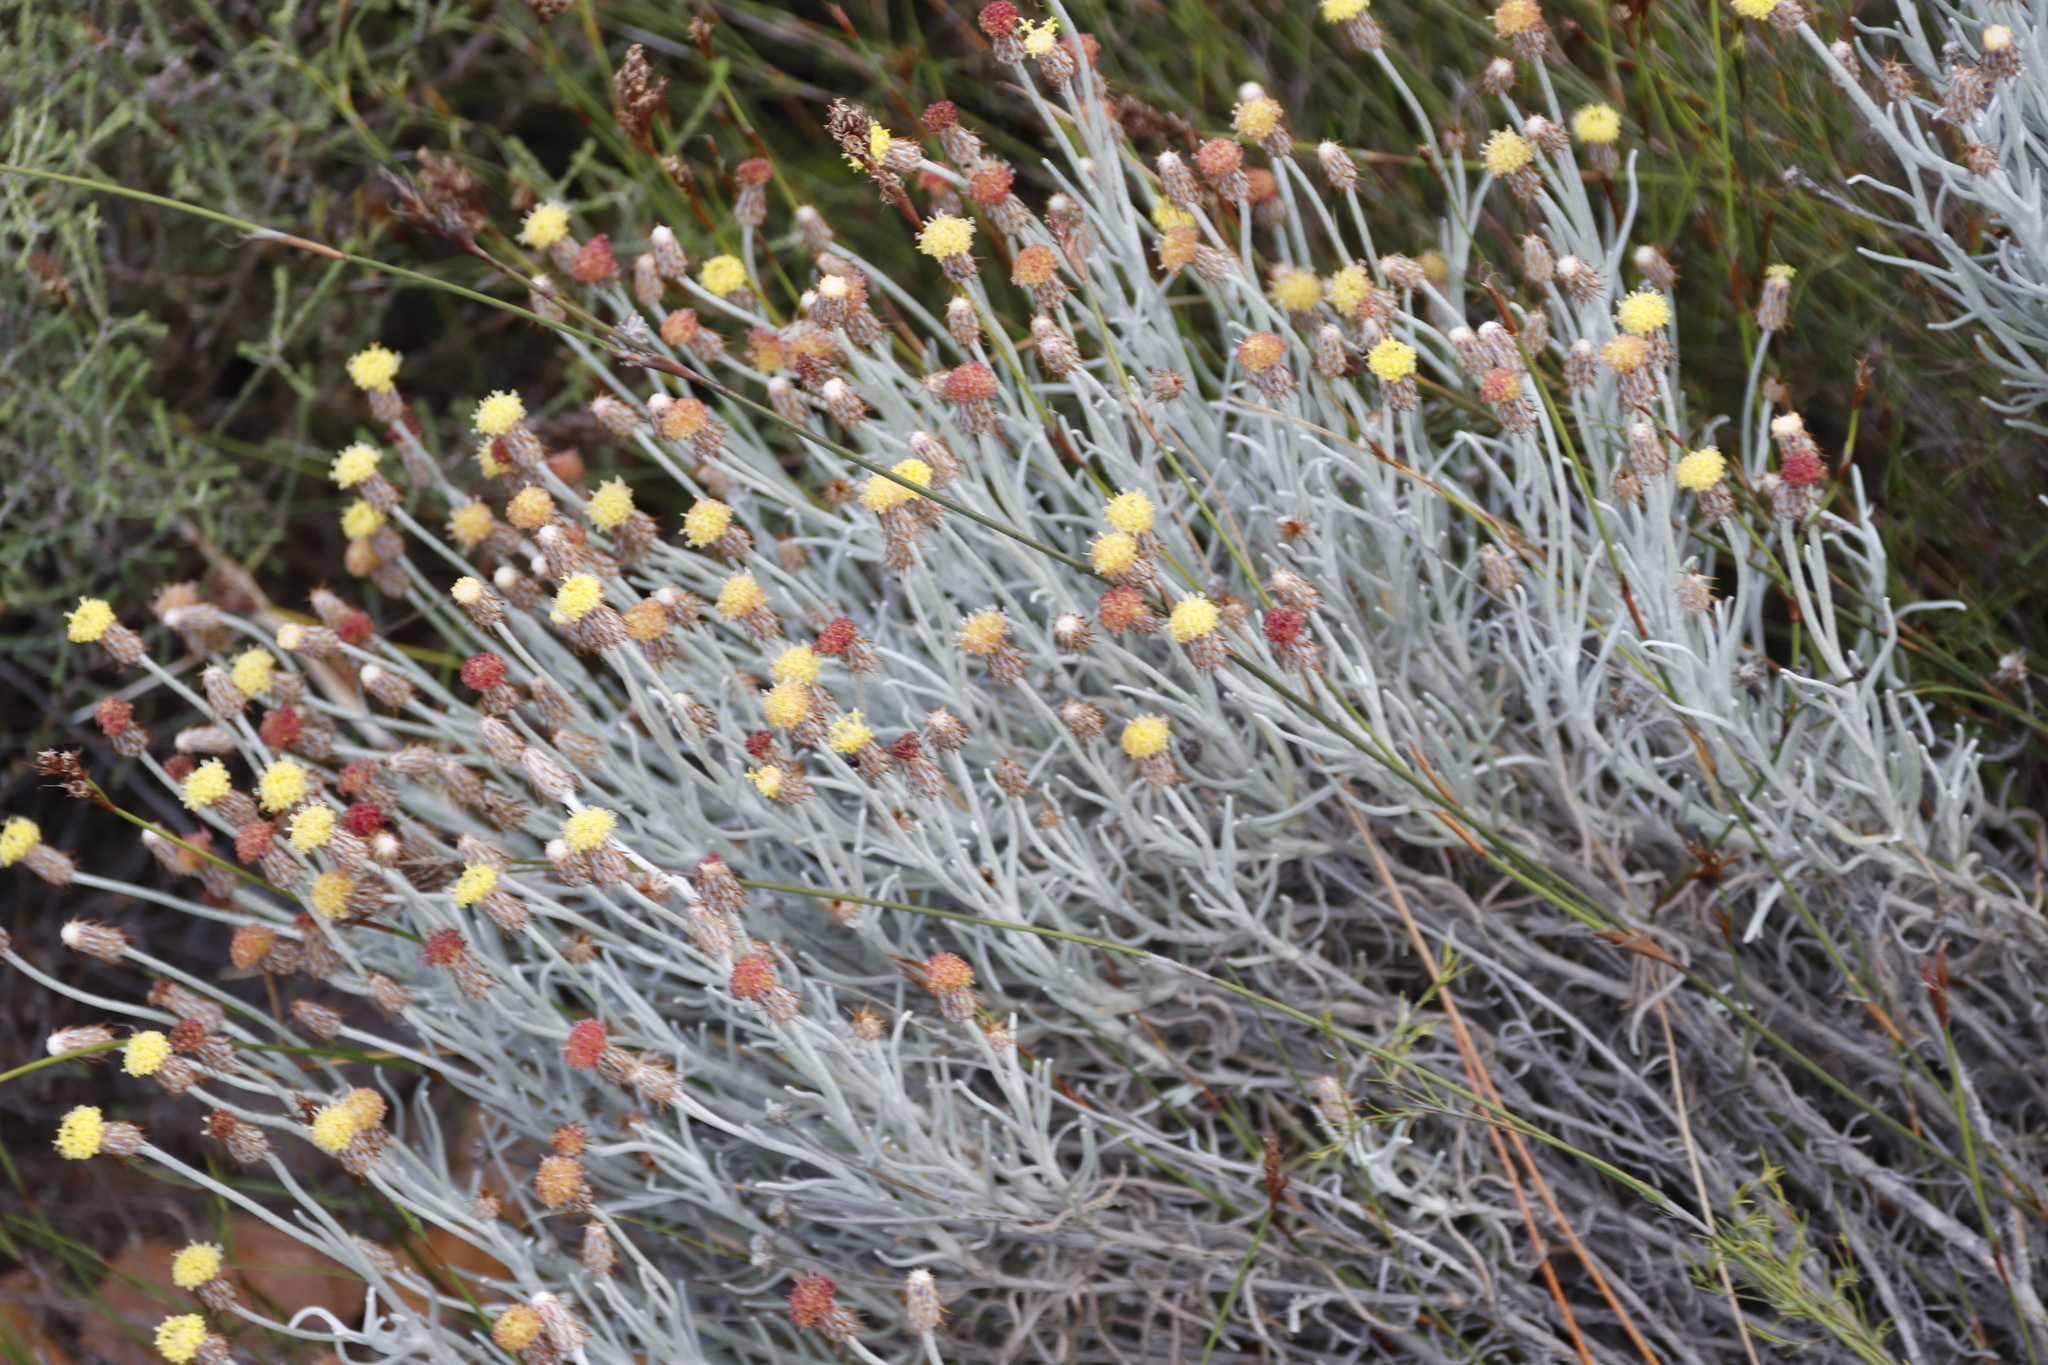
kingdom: Plantae
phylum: Tracheophyta
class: Magnoliopsida
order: Asterales
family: Asteraceae
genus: Syncarpha
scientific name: Syncarpha gnaphaloides
